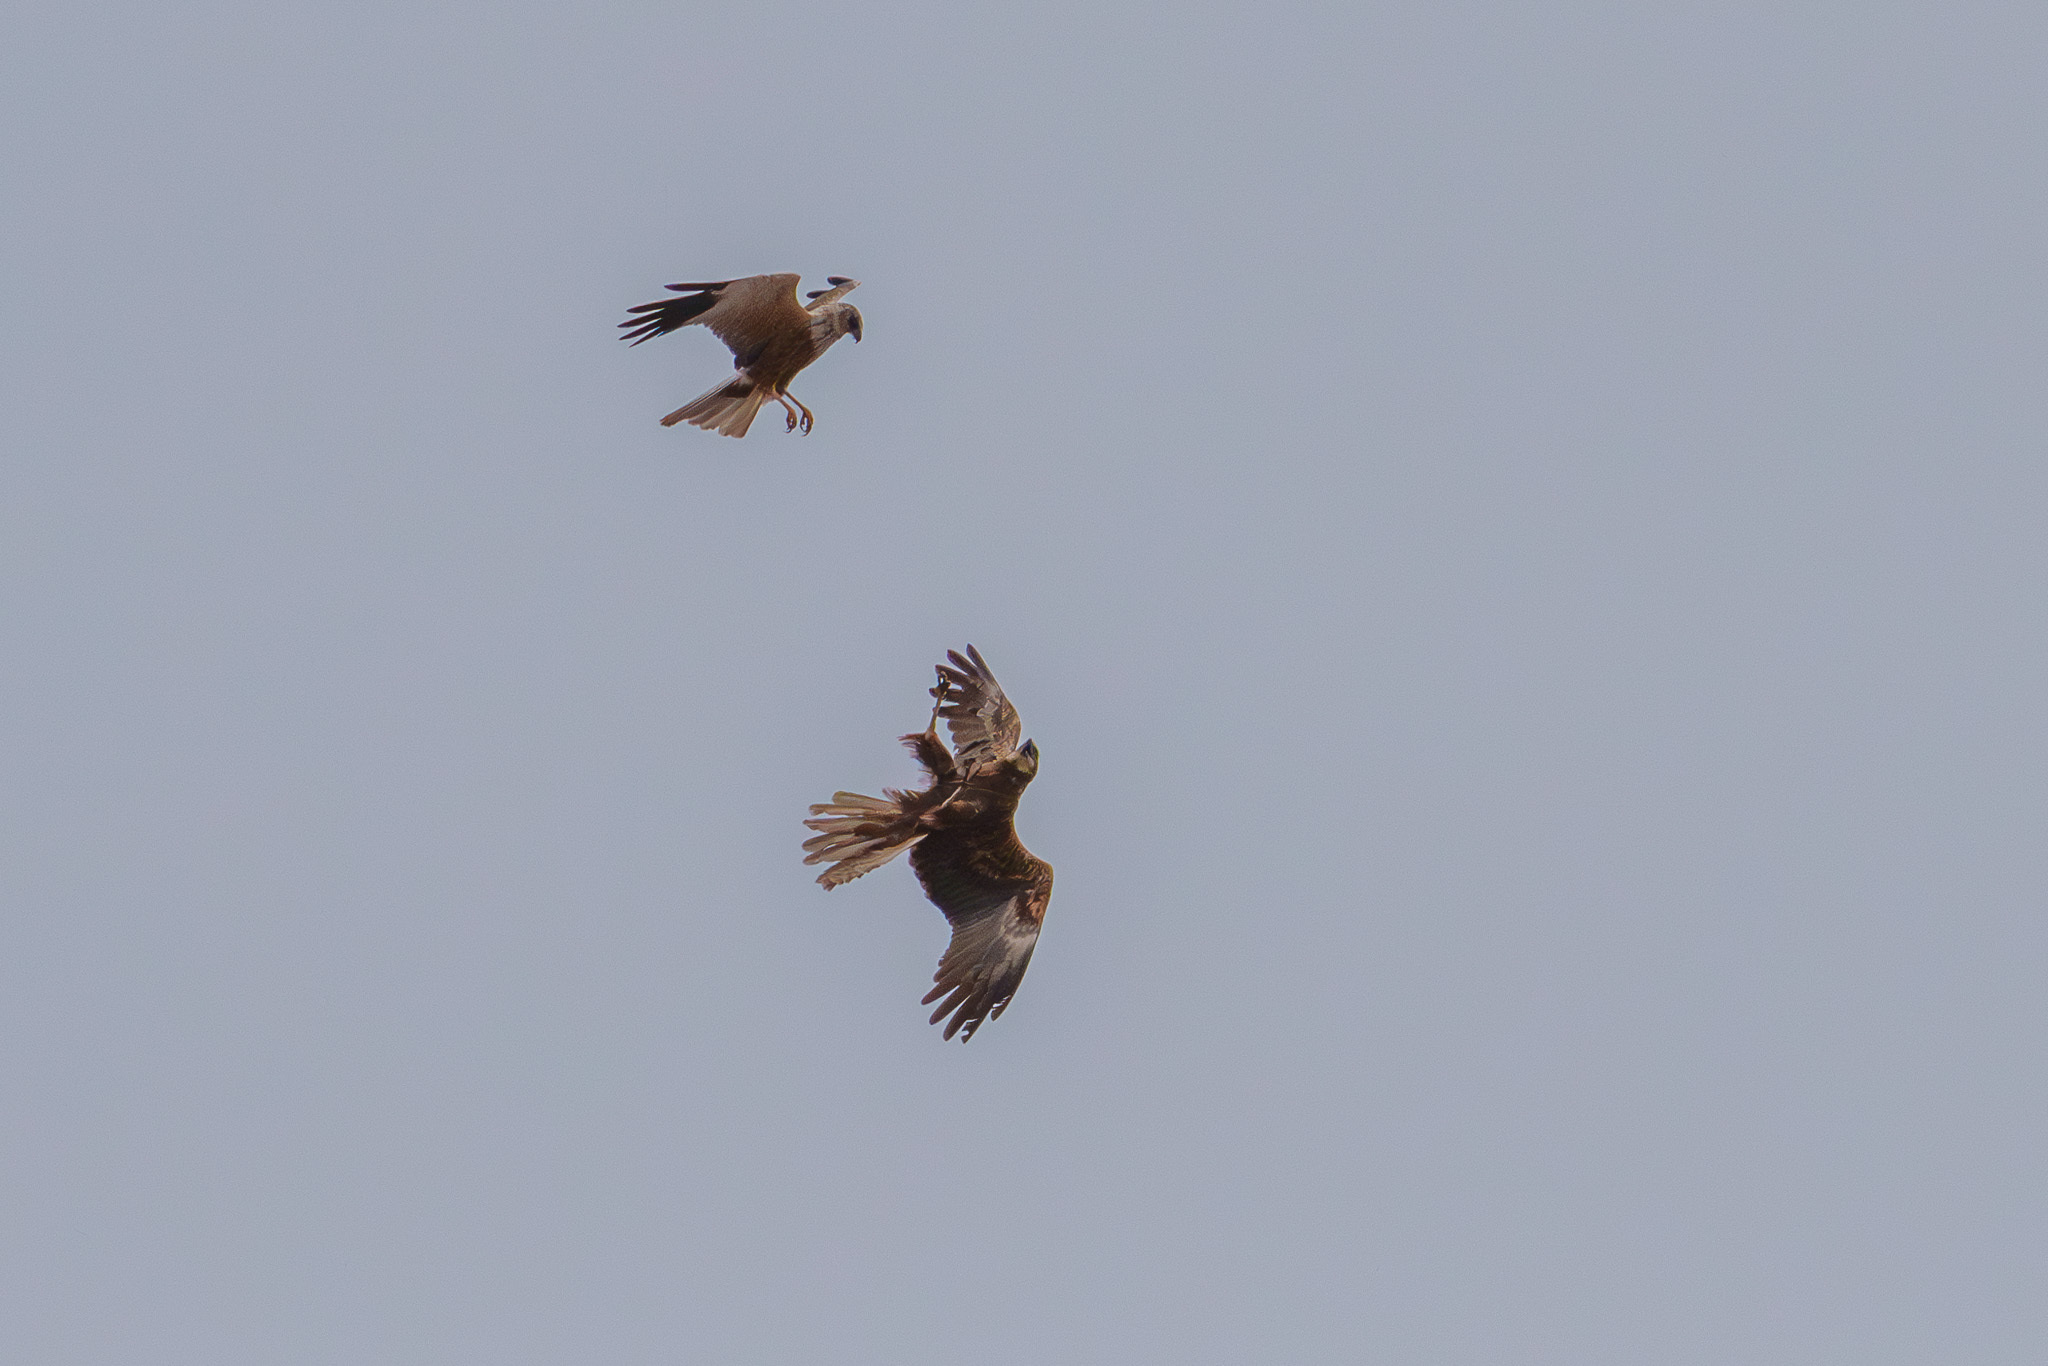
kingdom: Animalia
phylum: Chordata
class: Aves
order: Accipitriformes
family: Accipitridae
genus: Circus
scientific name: Circus aeruginosus
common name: Western marsh harrier
